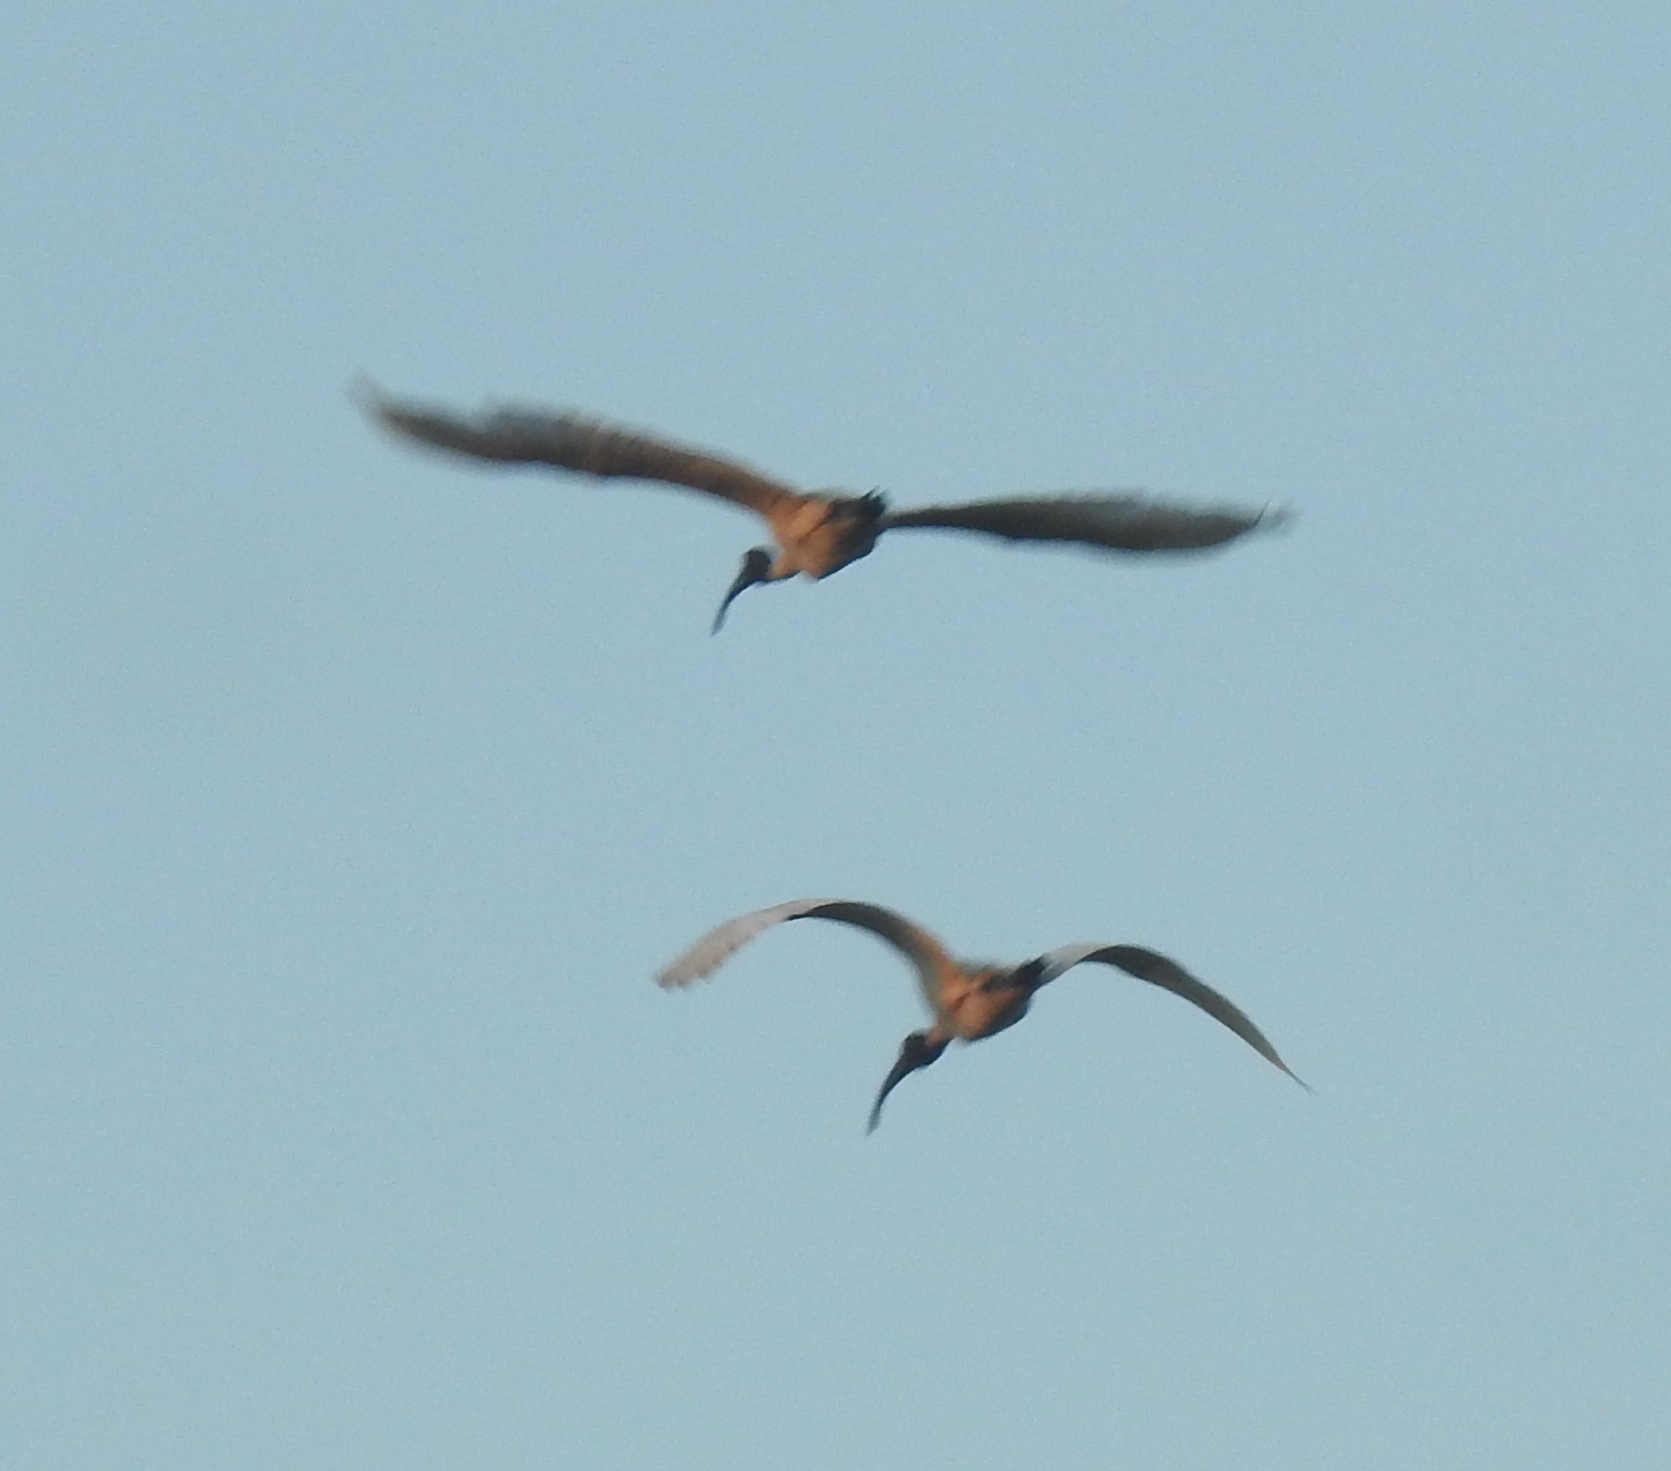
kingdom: Animalia
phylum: Chordata
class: Aves
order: Pelecaniformes
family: Threskiornithidae
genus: Threskiornis
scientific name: Threskiornis melanocephalus
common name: Black-headed ibis
